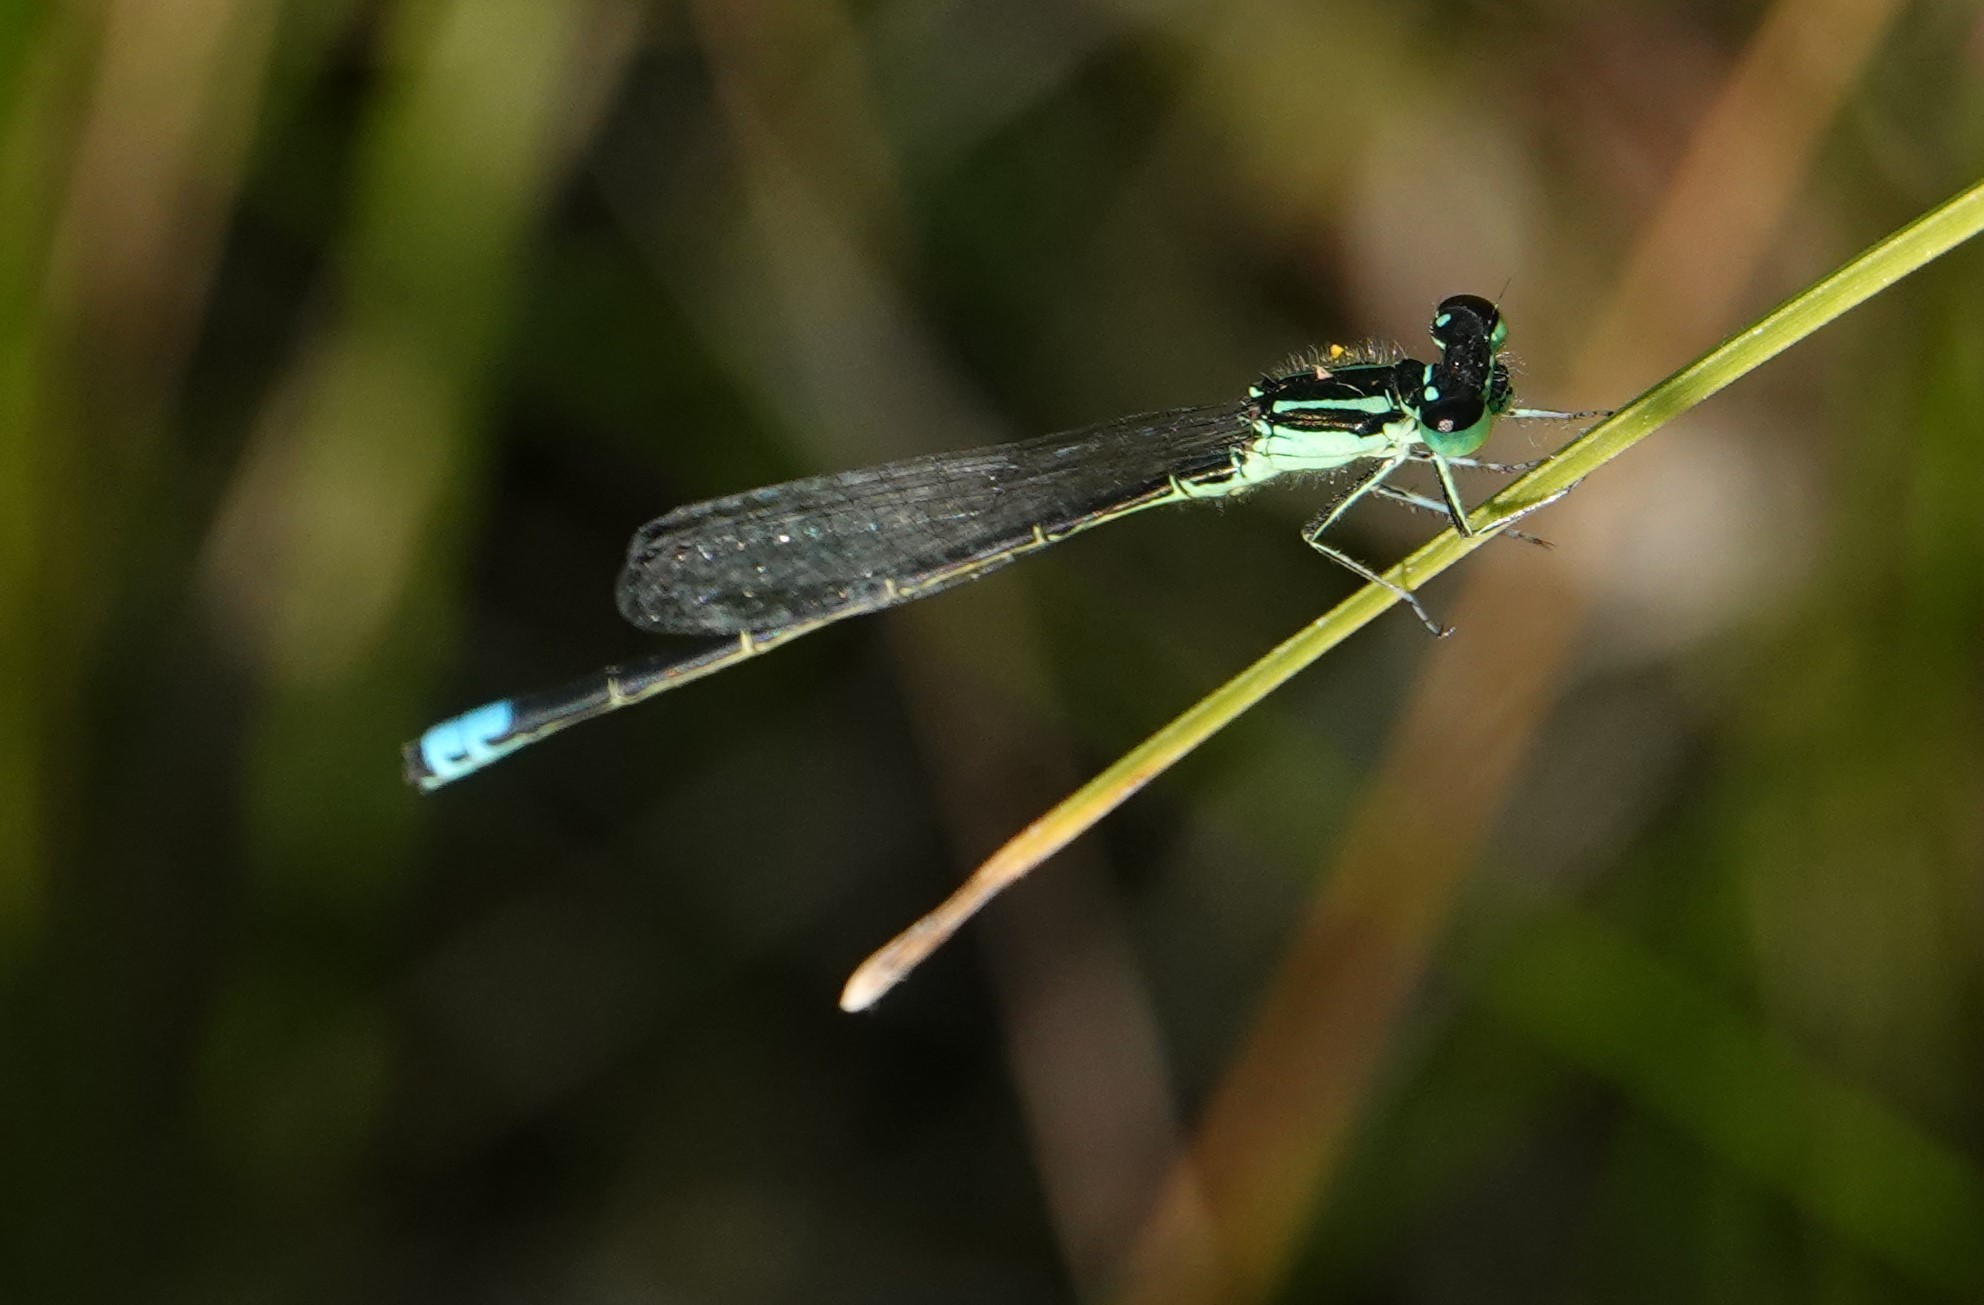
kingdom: Animalia
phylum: Arthropoda
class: Insecta
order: Odonata
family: Coenagrionidae
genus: Ischnura
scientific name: Ischnura verticalis
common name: Eastern forktail
